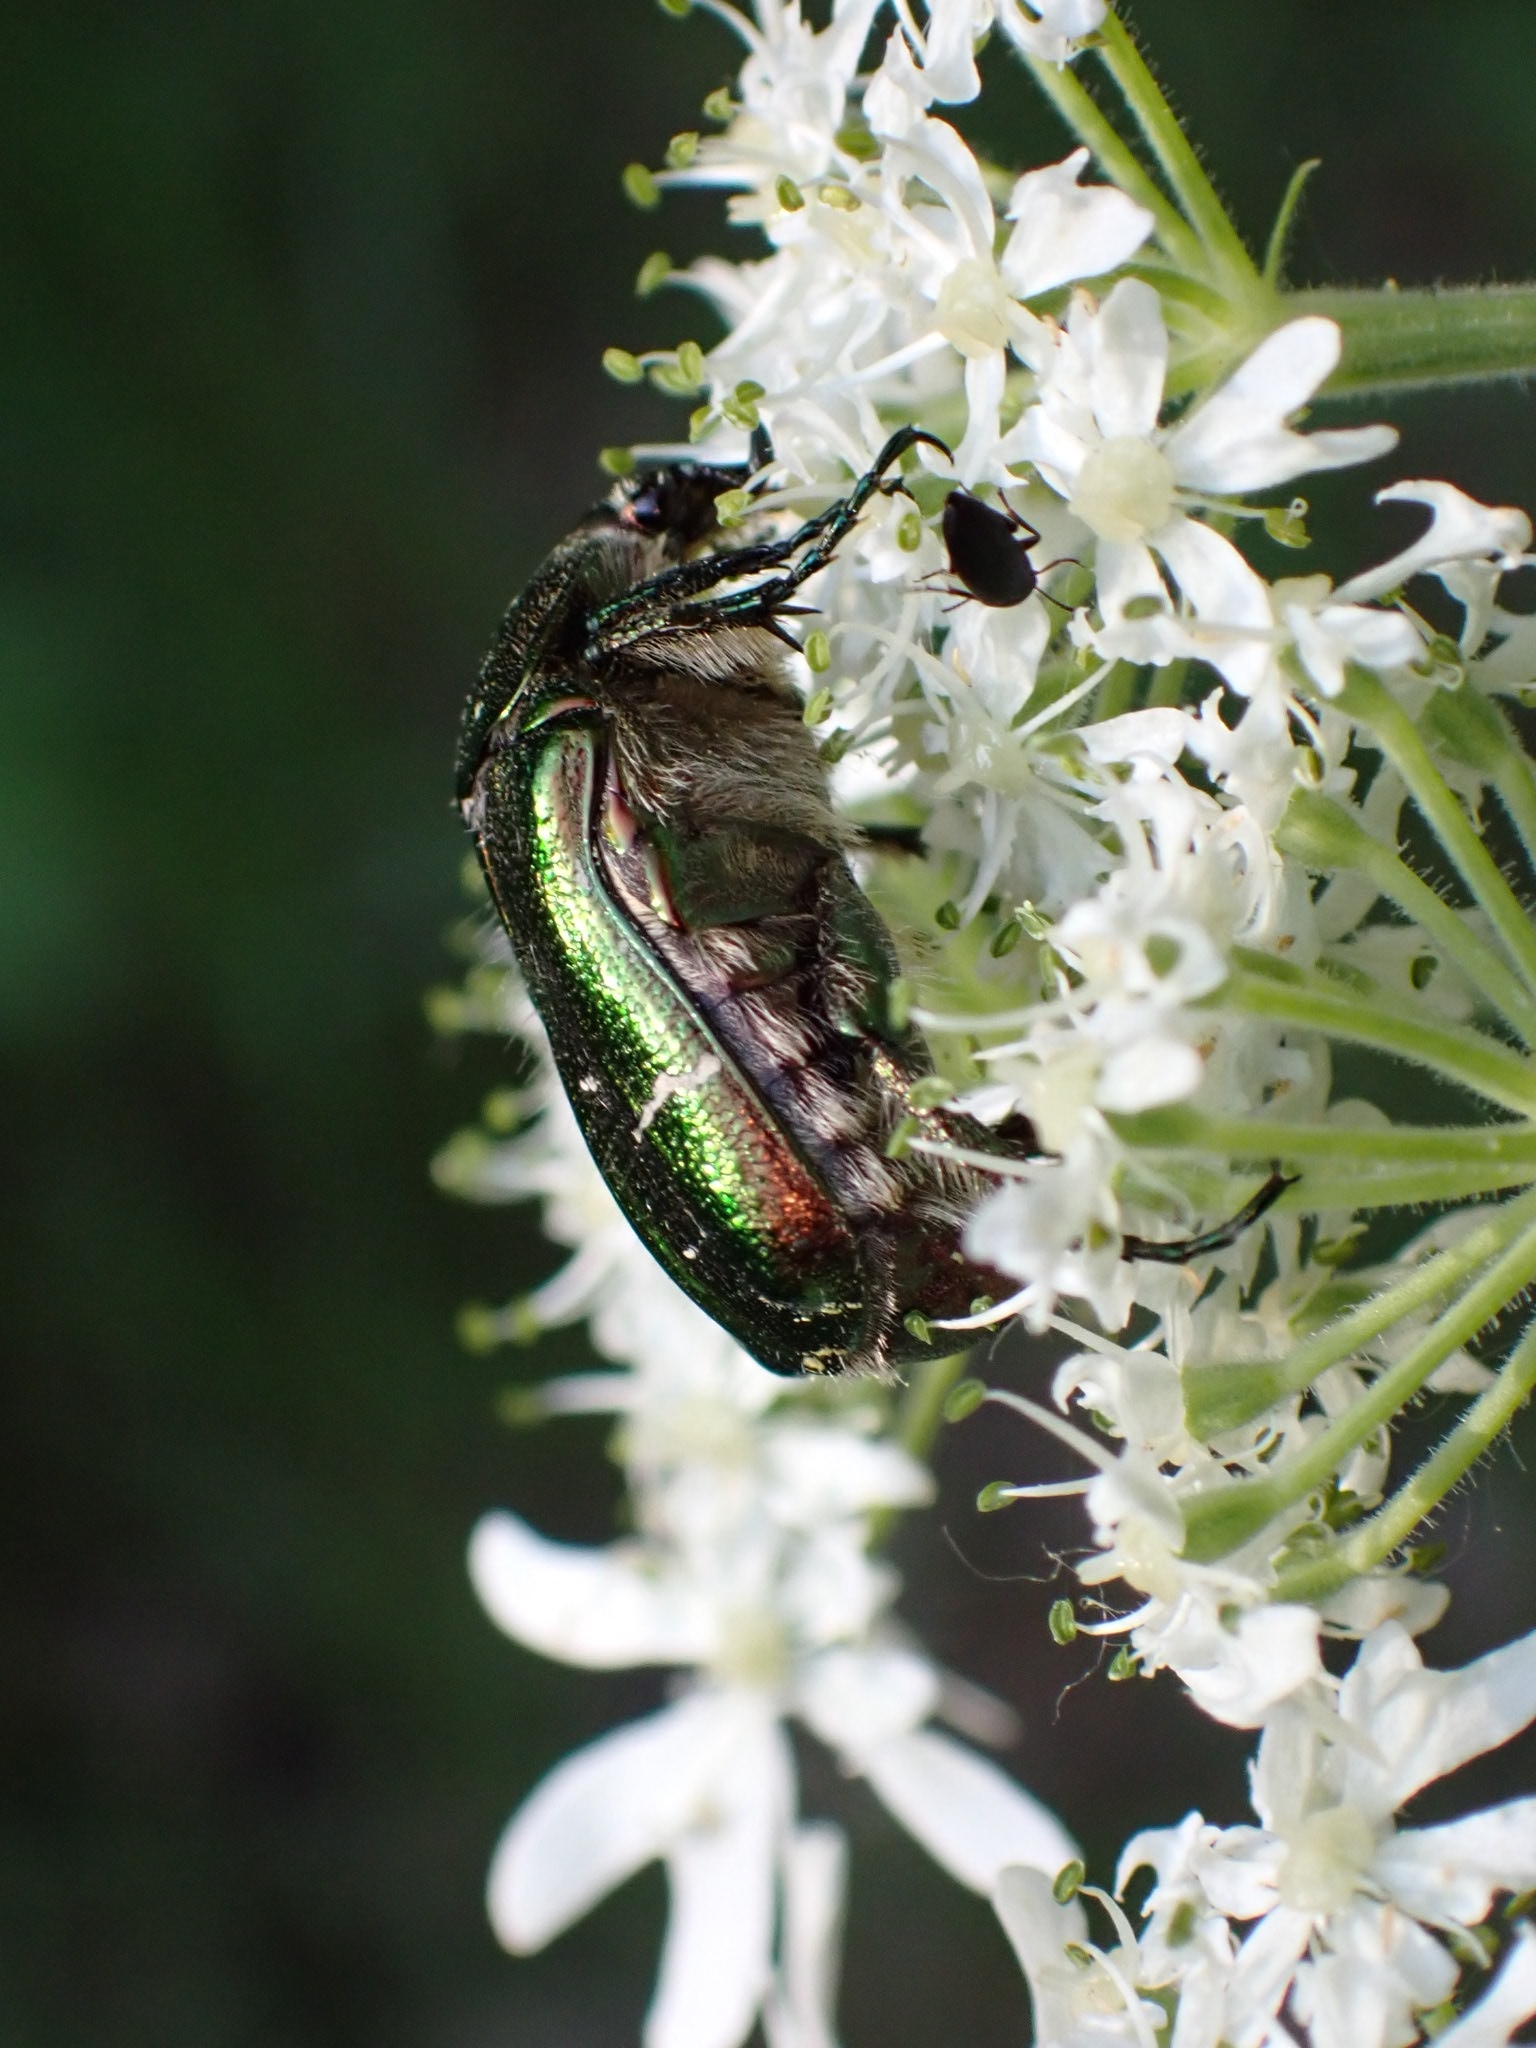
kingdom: Animalia
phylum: Arthropoda
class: Insecta
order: Coleoptera
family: Scarabaeidae
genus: Cetonia
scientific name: Cetonia aurata
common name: Rose chafer
